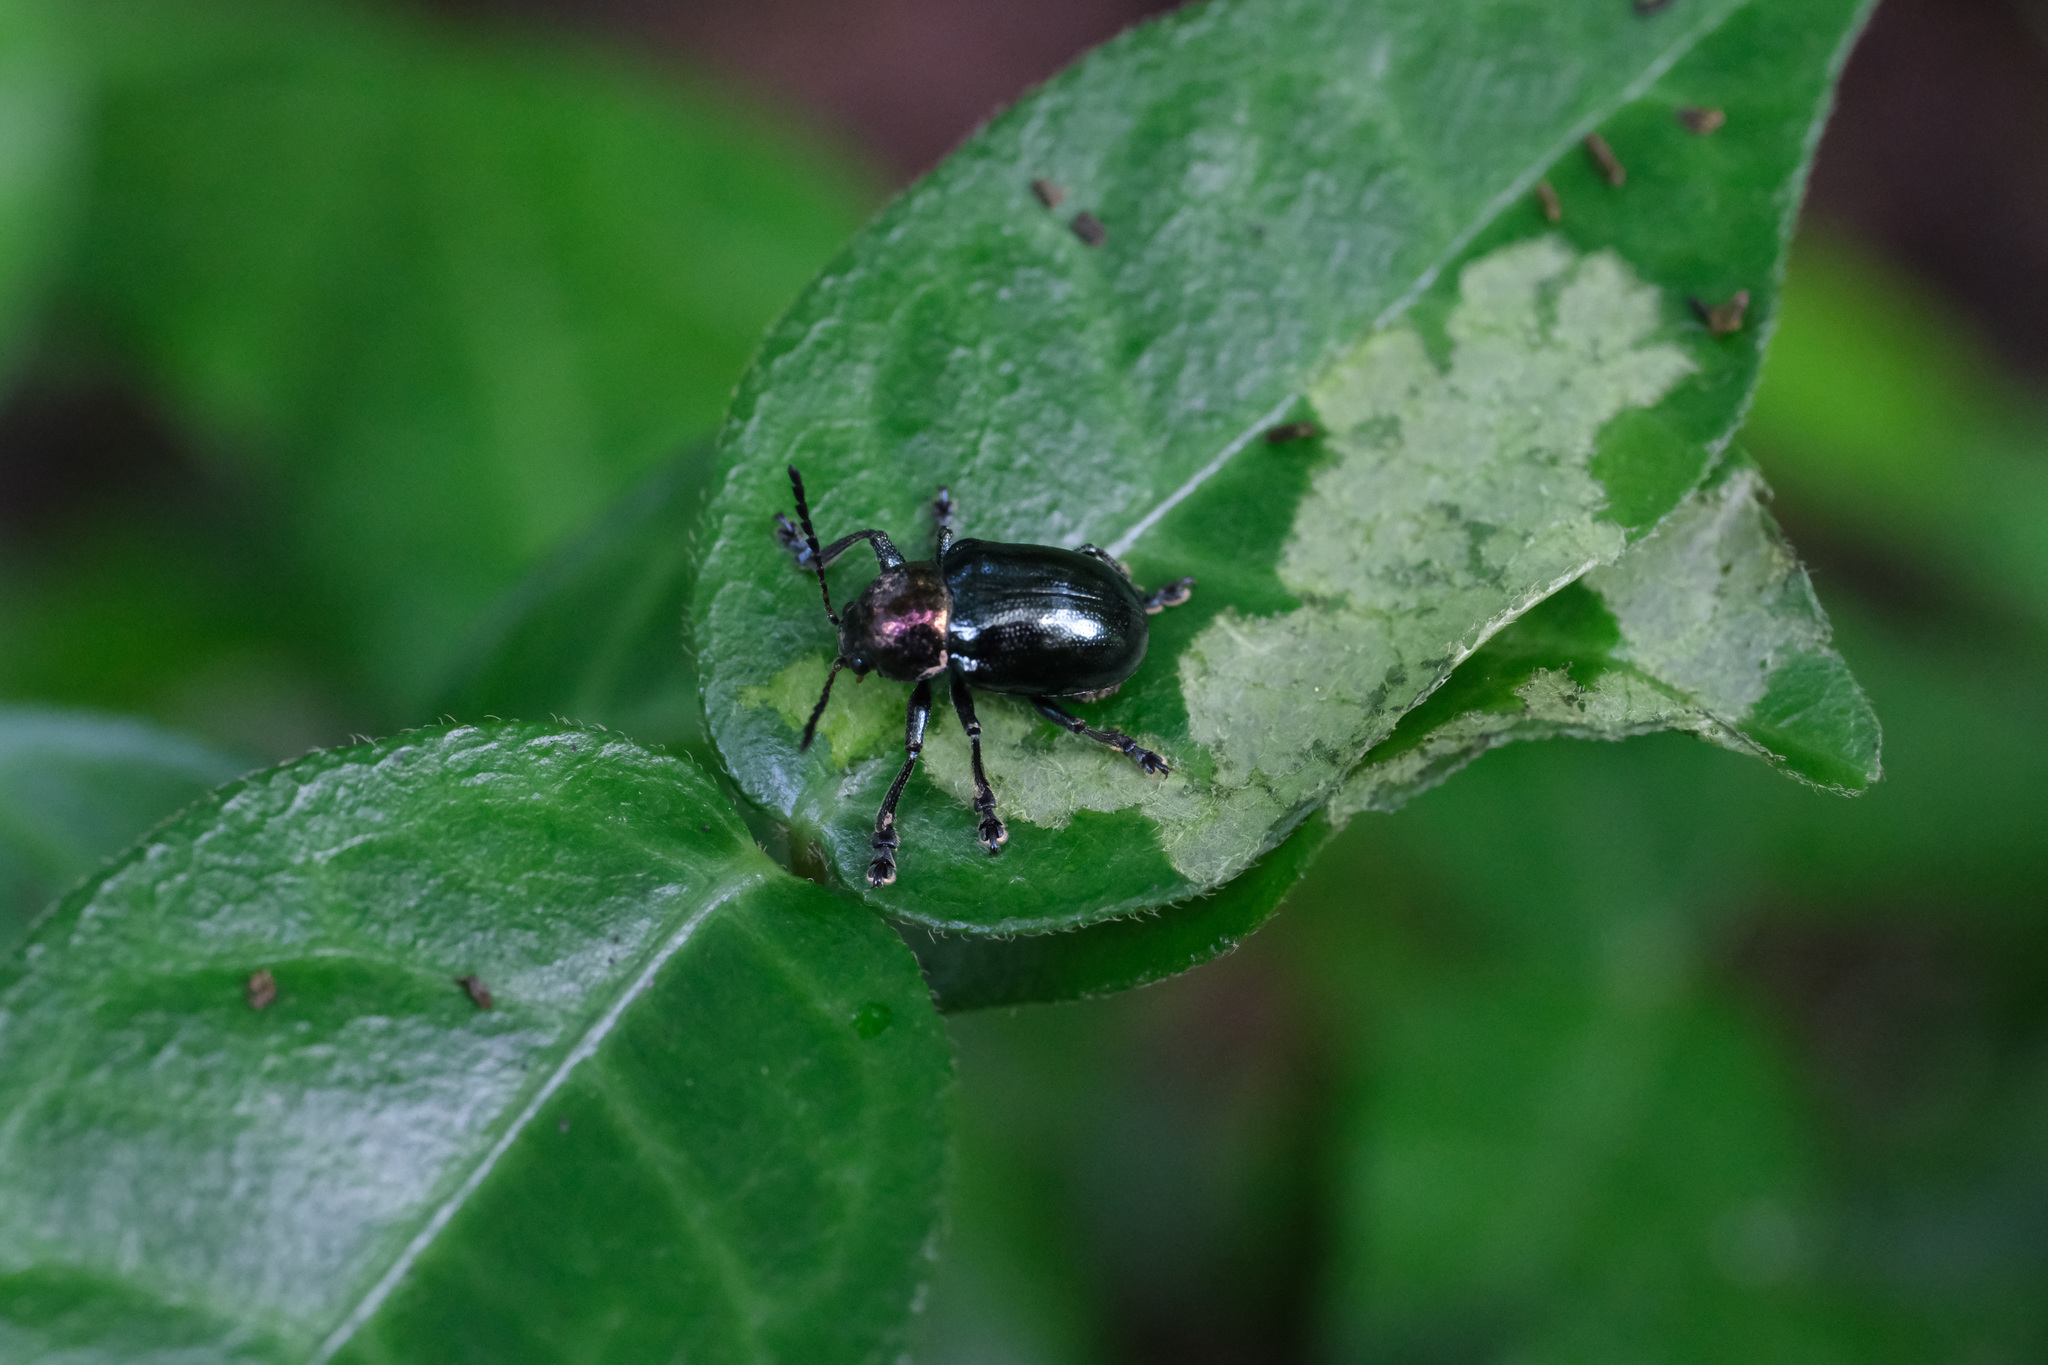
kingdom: Animalia
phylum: Arthropoda
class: Insecta
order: Coleoptera
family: Chrysomelidae
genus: Platycorynus
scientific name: Platycorynus
